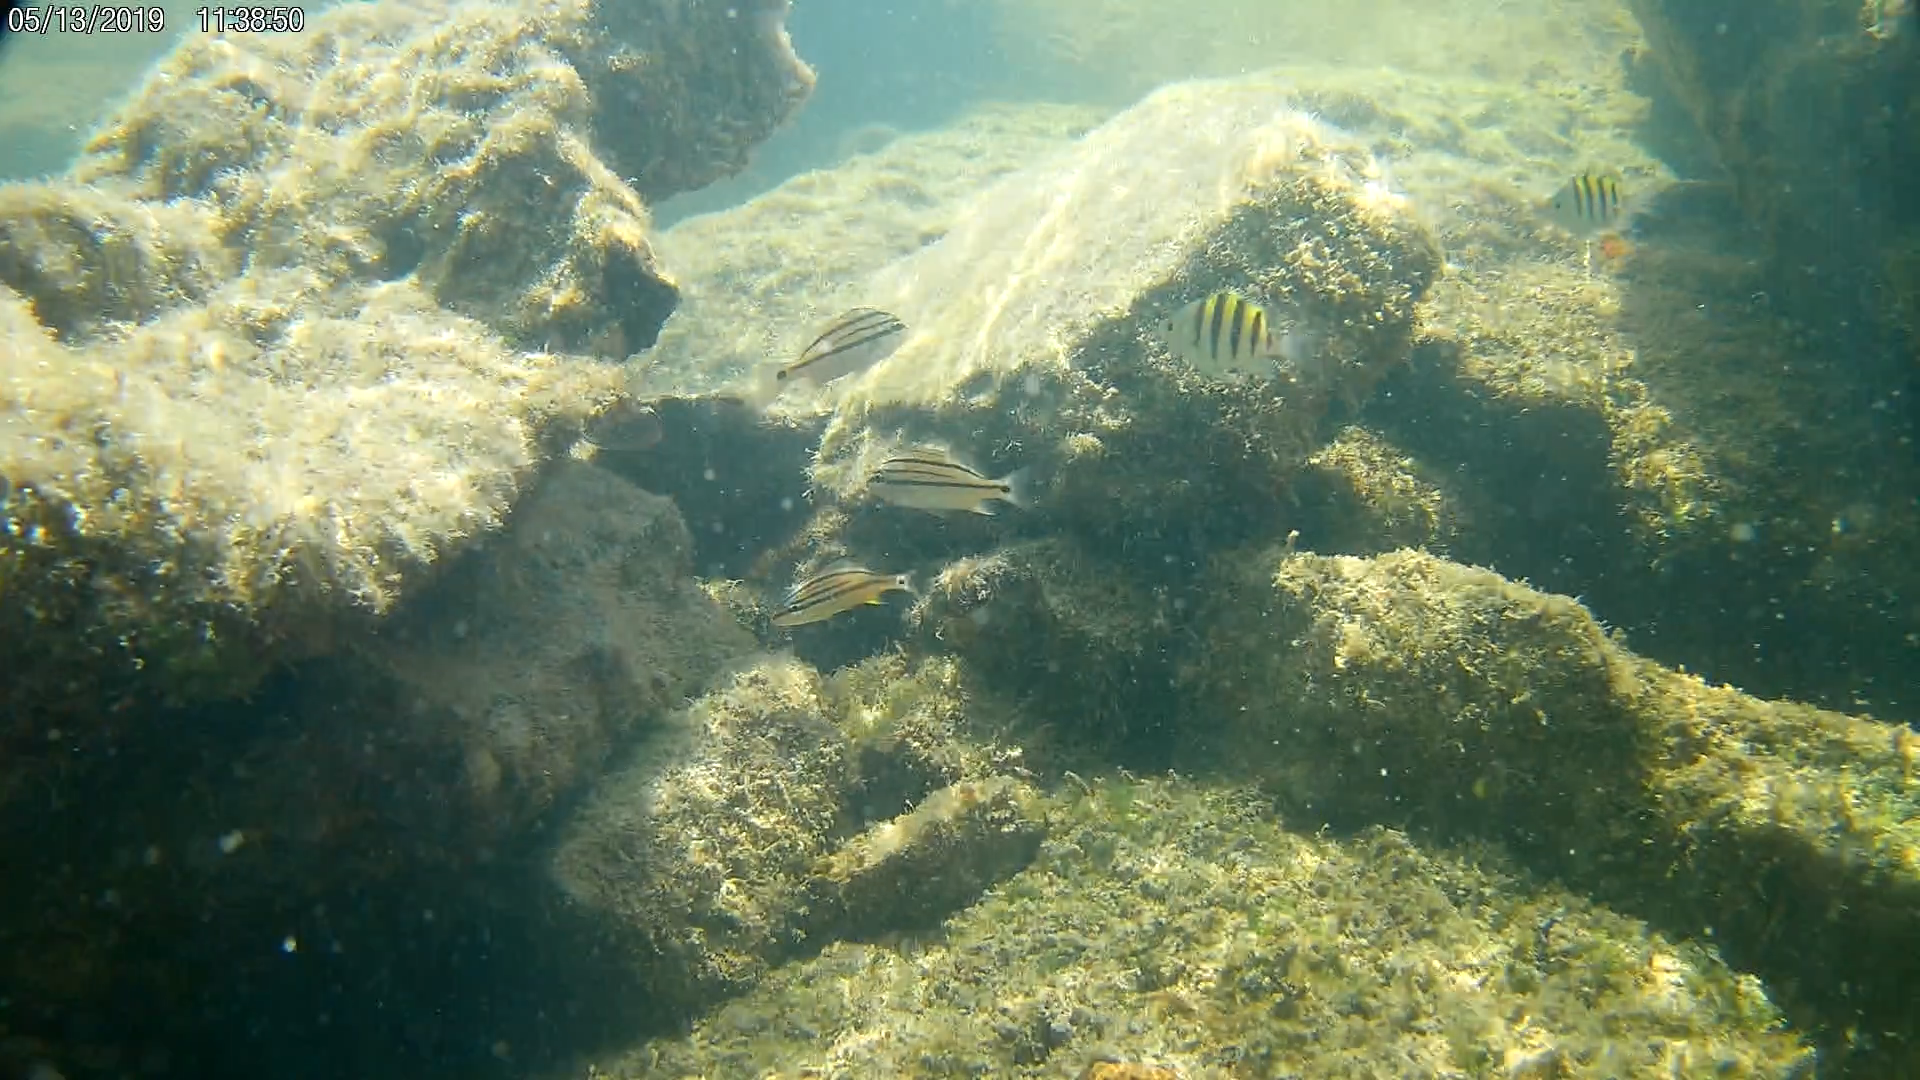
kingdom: Animalia
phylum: Chordata
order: Perciformes
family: Pomacentridae
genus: Abudefduf
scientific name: Abudefduf saxatilis
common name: Sergeant major
